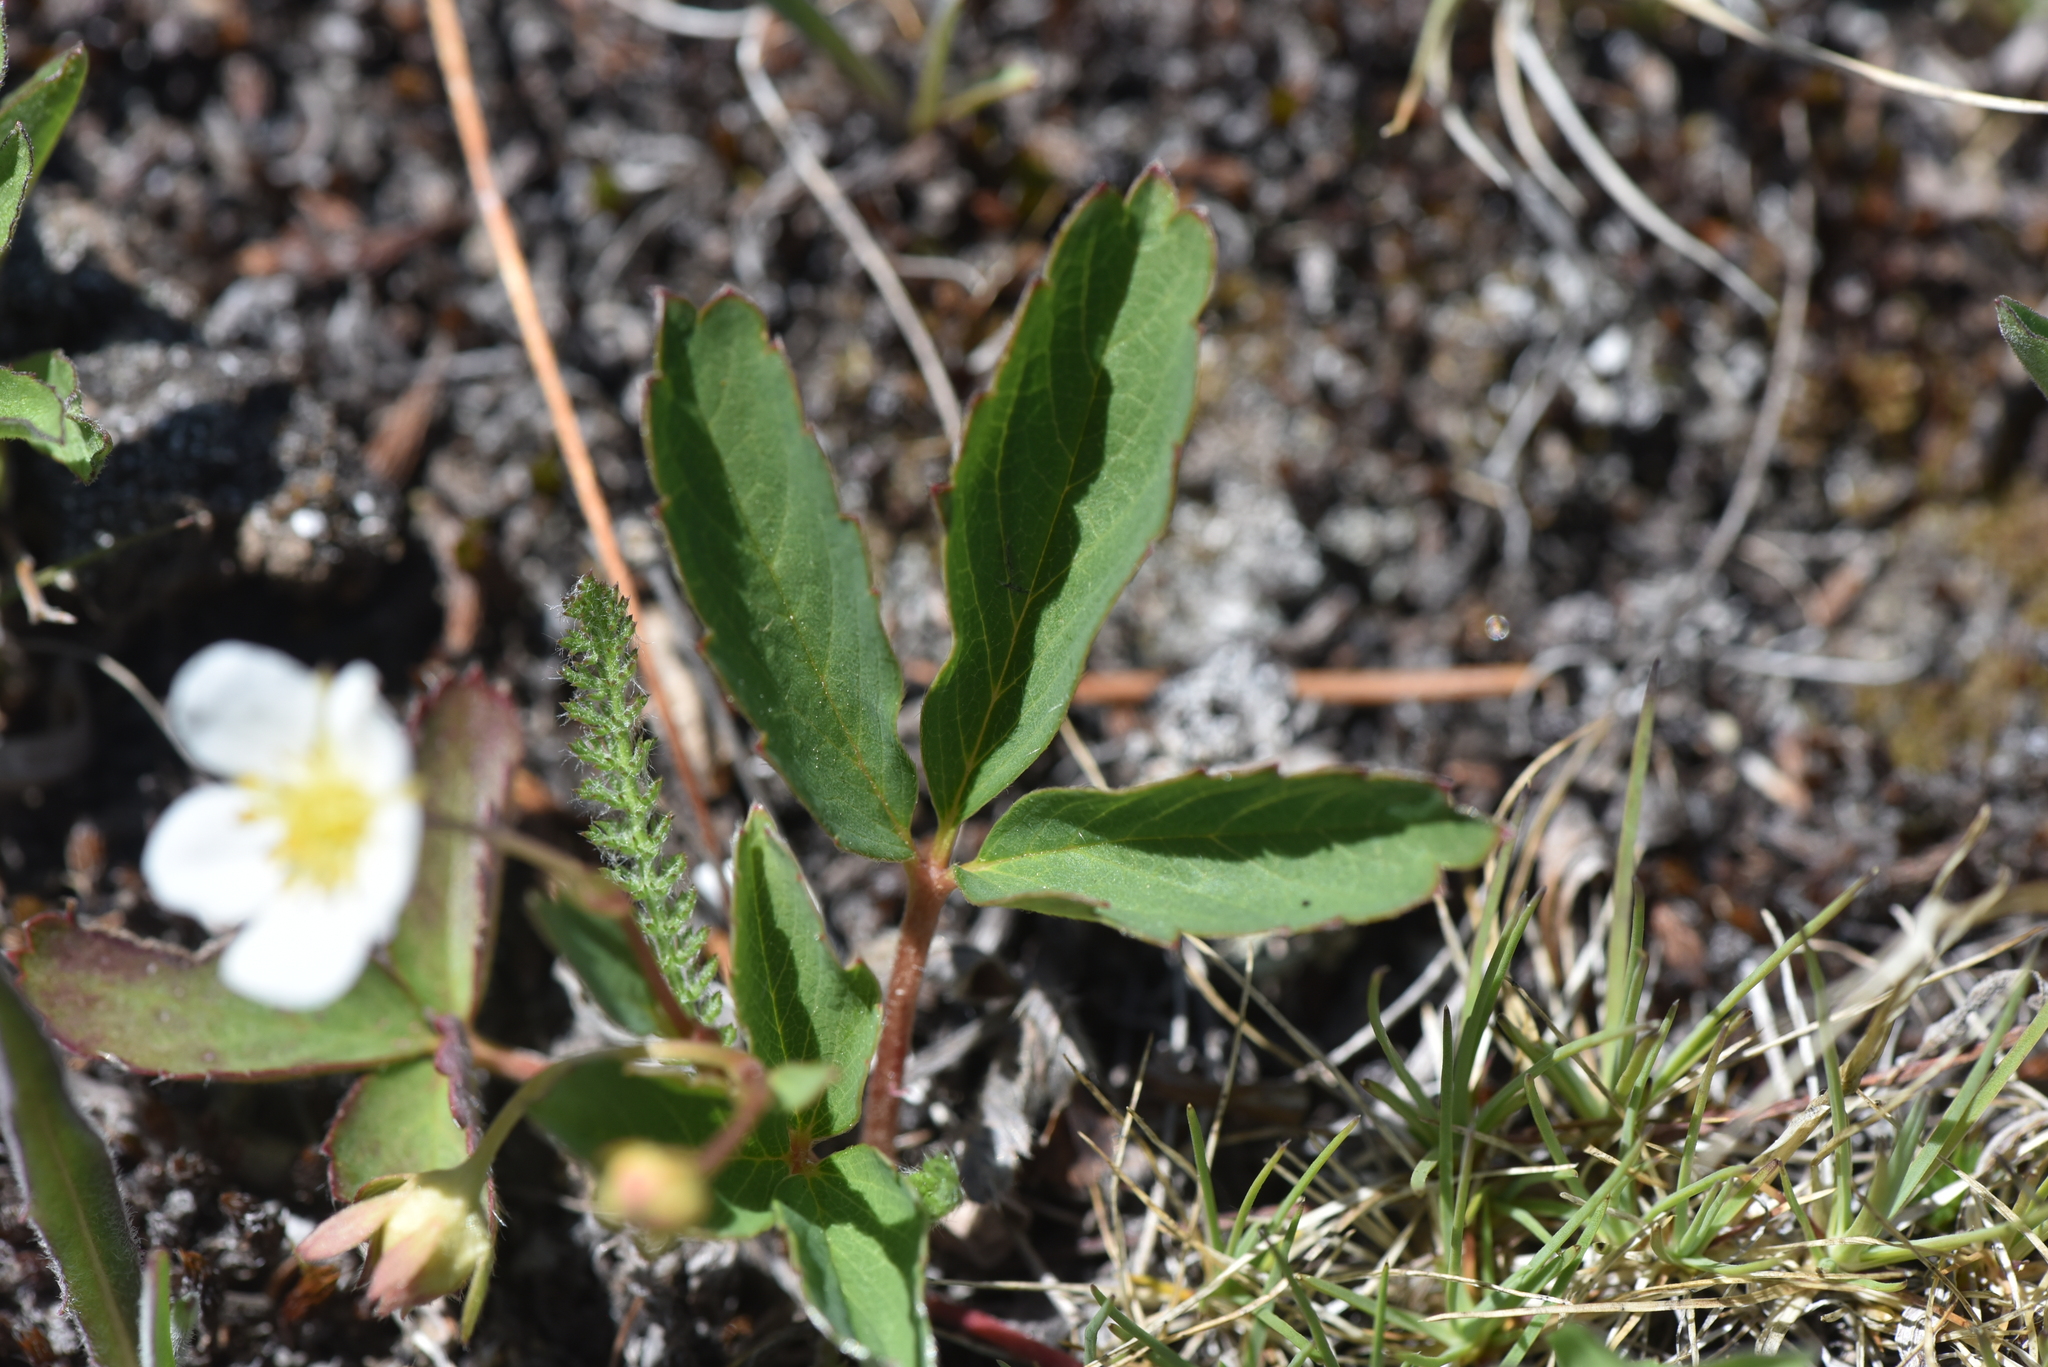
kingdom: Plantae
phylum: Tracheophyta
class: Magnoliopsida
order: Rosales
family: Rosaceae
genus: Fragaria
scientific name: Fragaria virginiana
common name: Thickleaved wild strawberry
